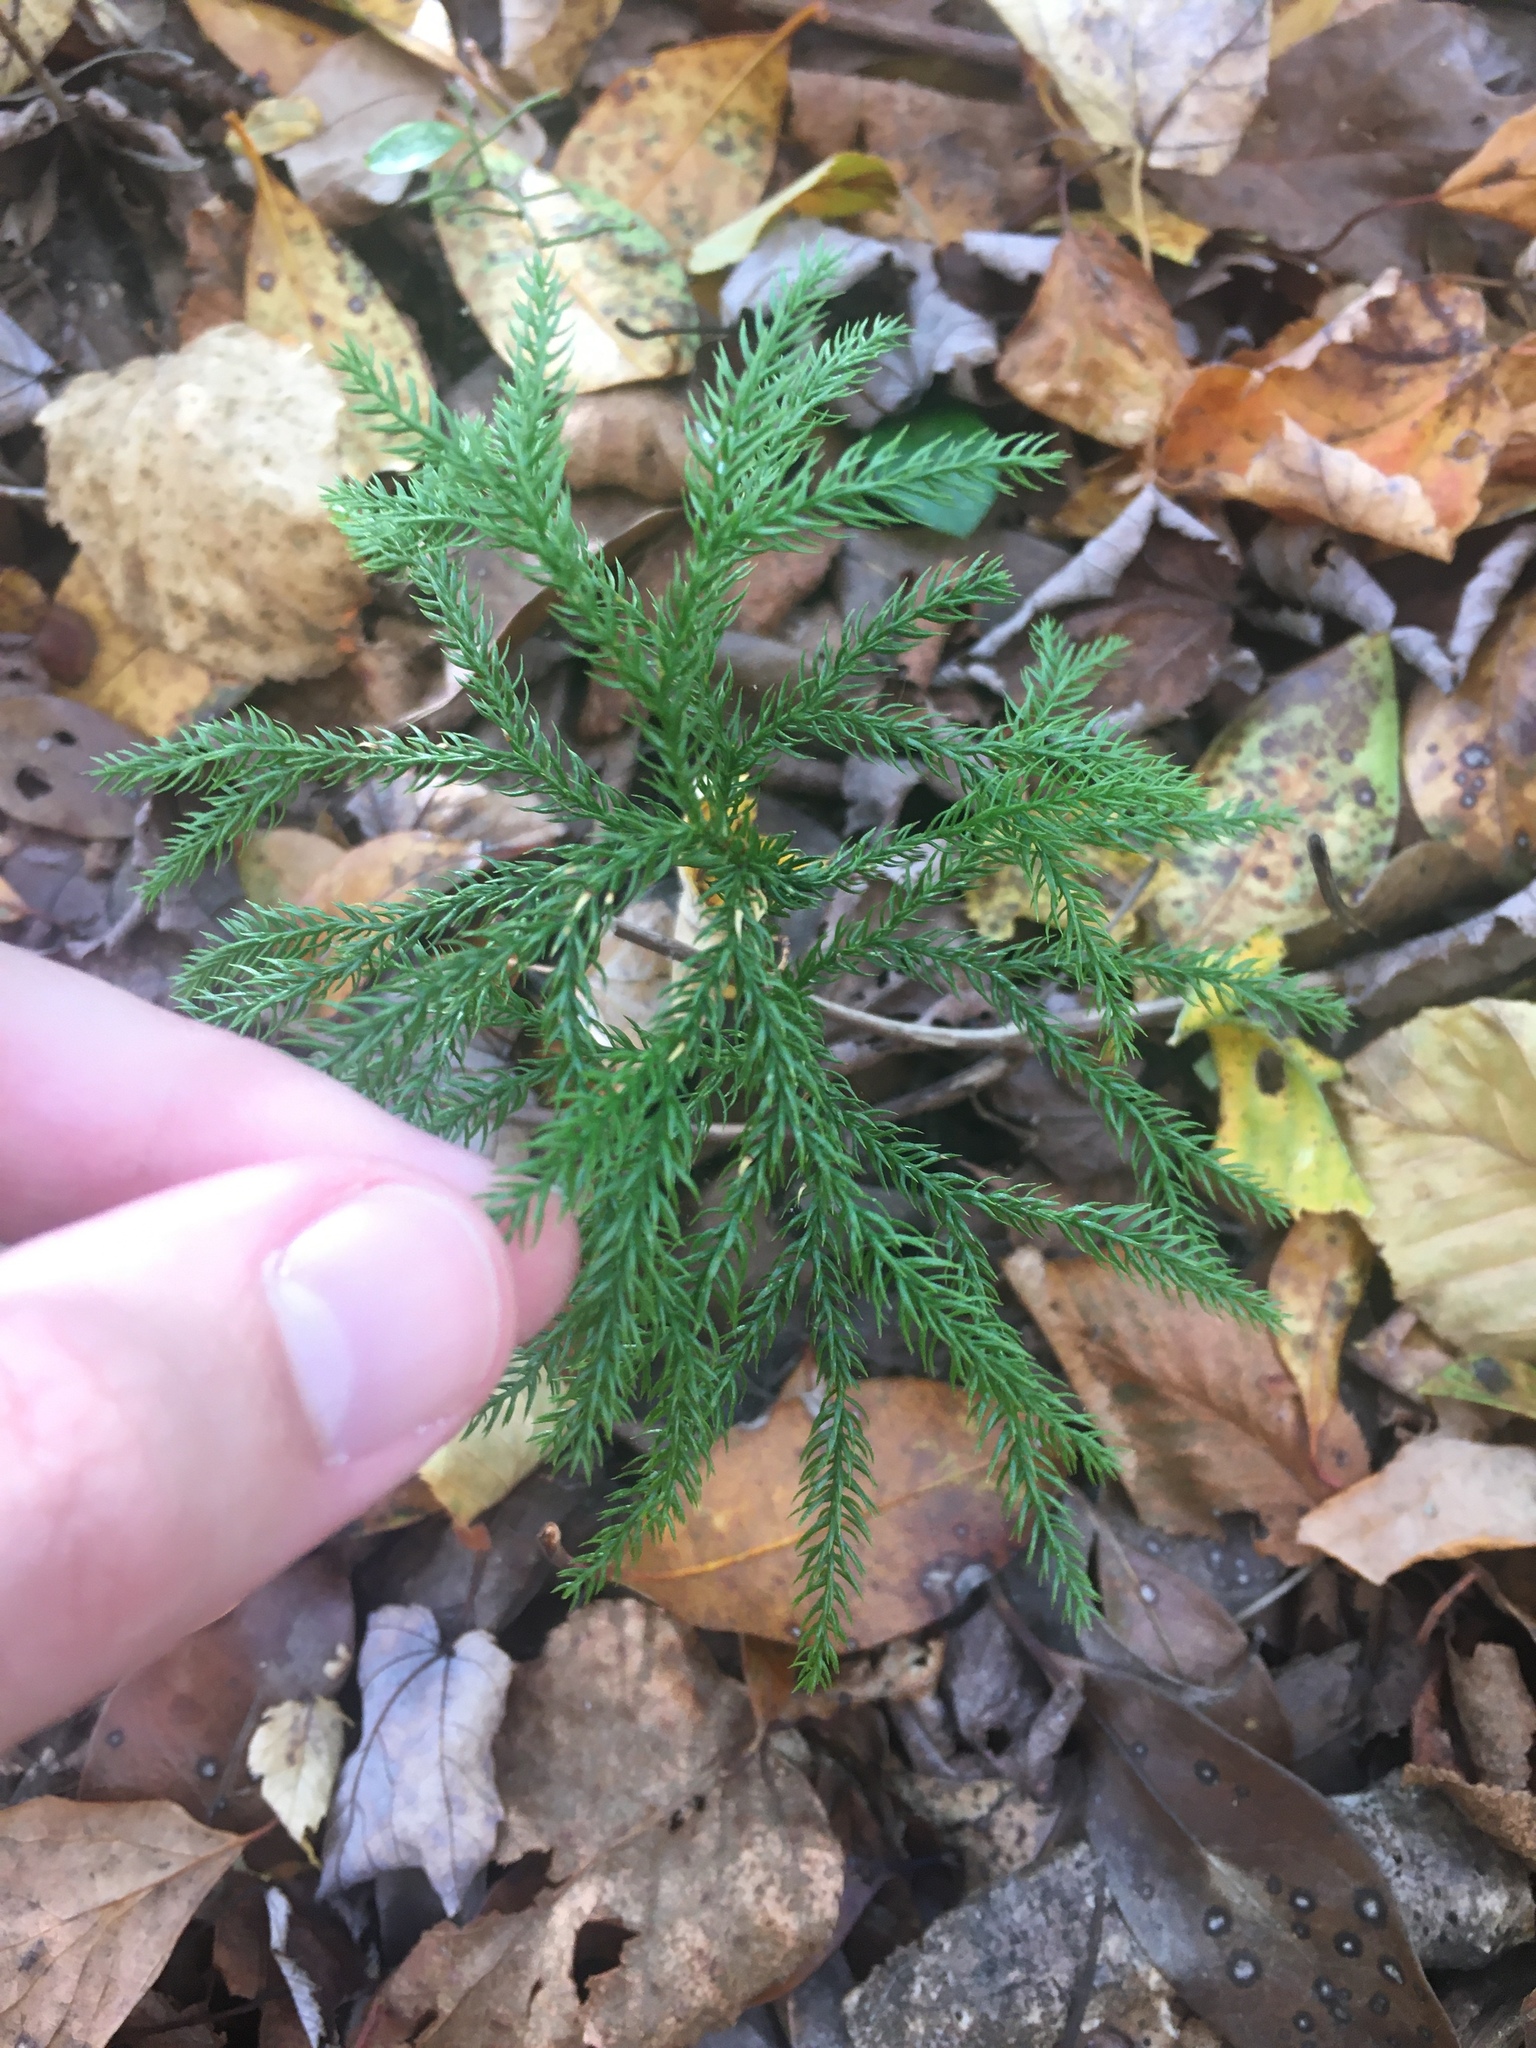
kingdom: Plantae
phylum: Tracheophyta
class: Lycopodiopsida
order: Lycopodiales
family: Lycopodiaceae
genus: Dendrolycopodium
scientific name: Dendrolycopodium dendroideum
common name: Northern tree-clubmoss
